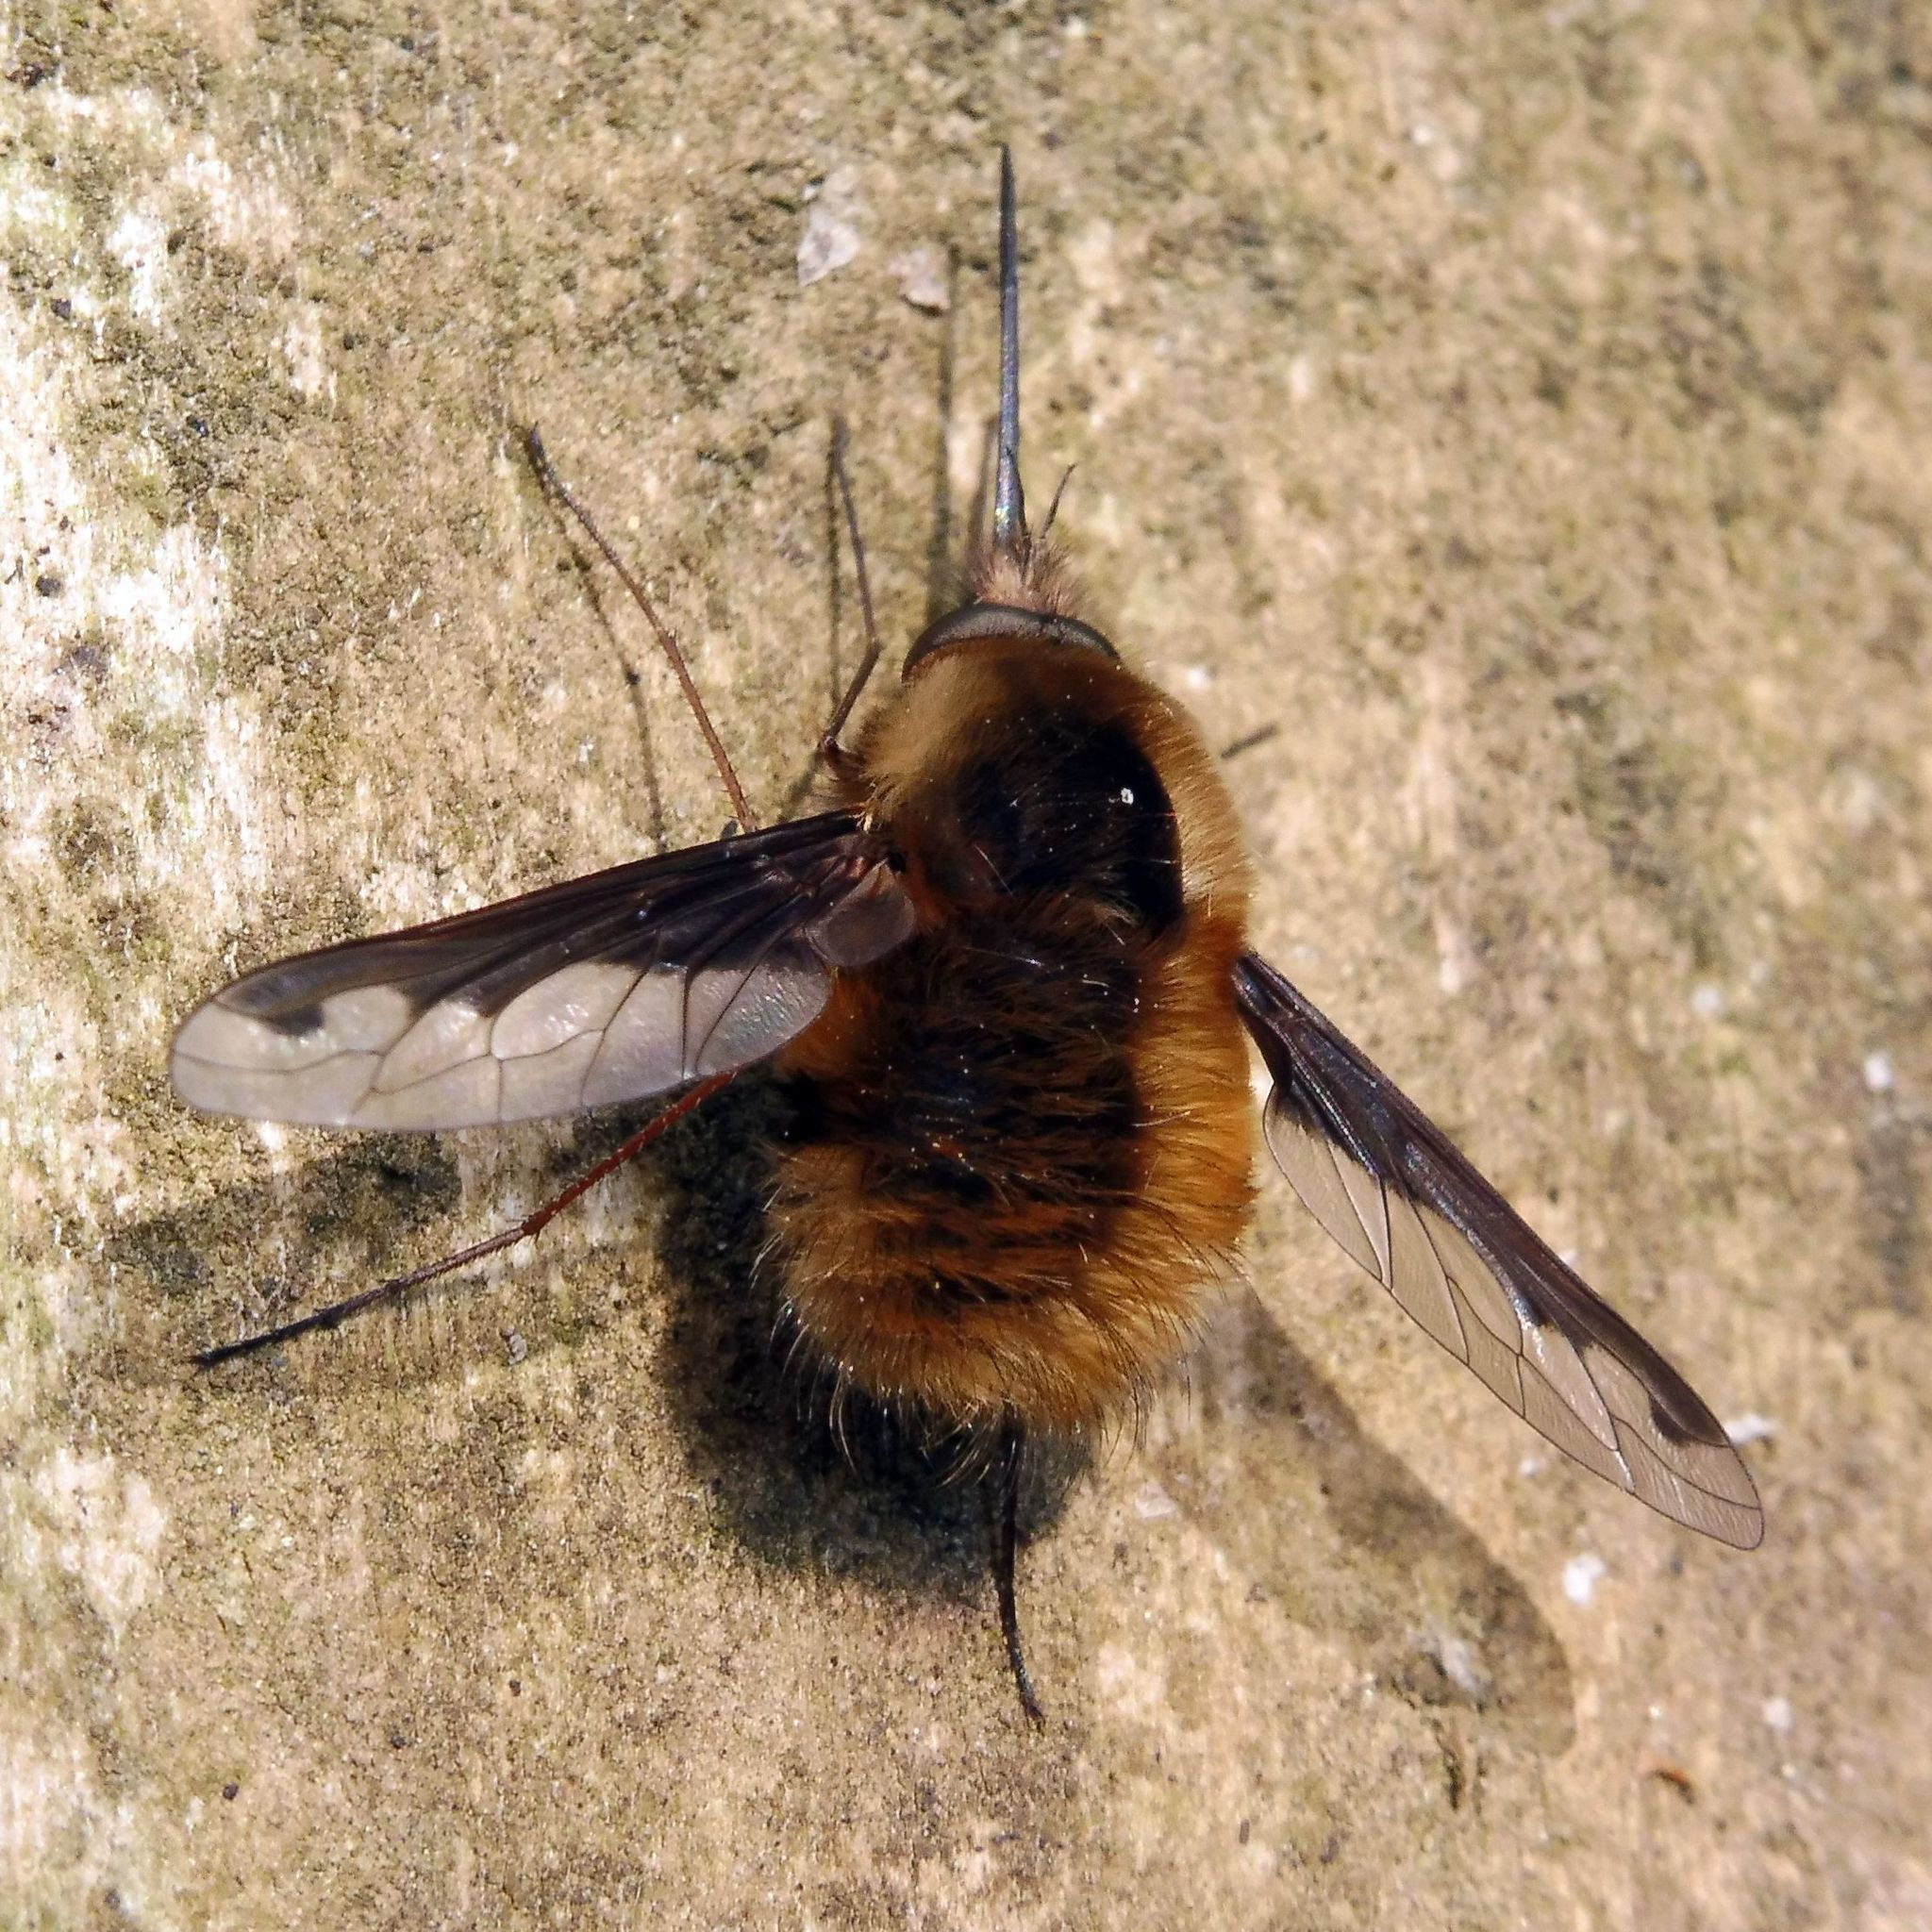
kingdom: Animalia
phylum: Arthropoda
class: Insecta
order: Diptera
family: Bombyliidae
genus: Bombylius
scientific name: Bombylius major
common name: Bee fly
